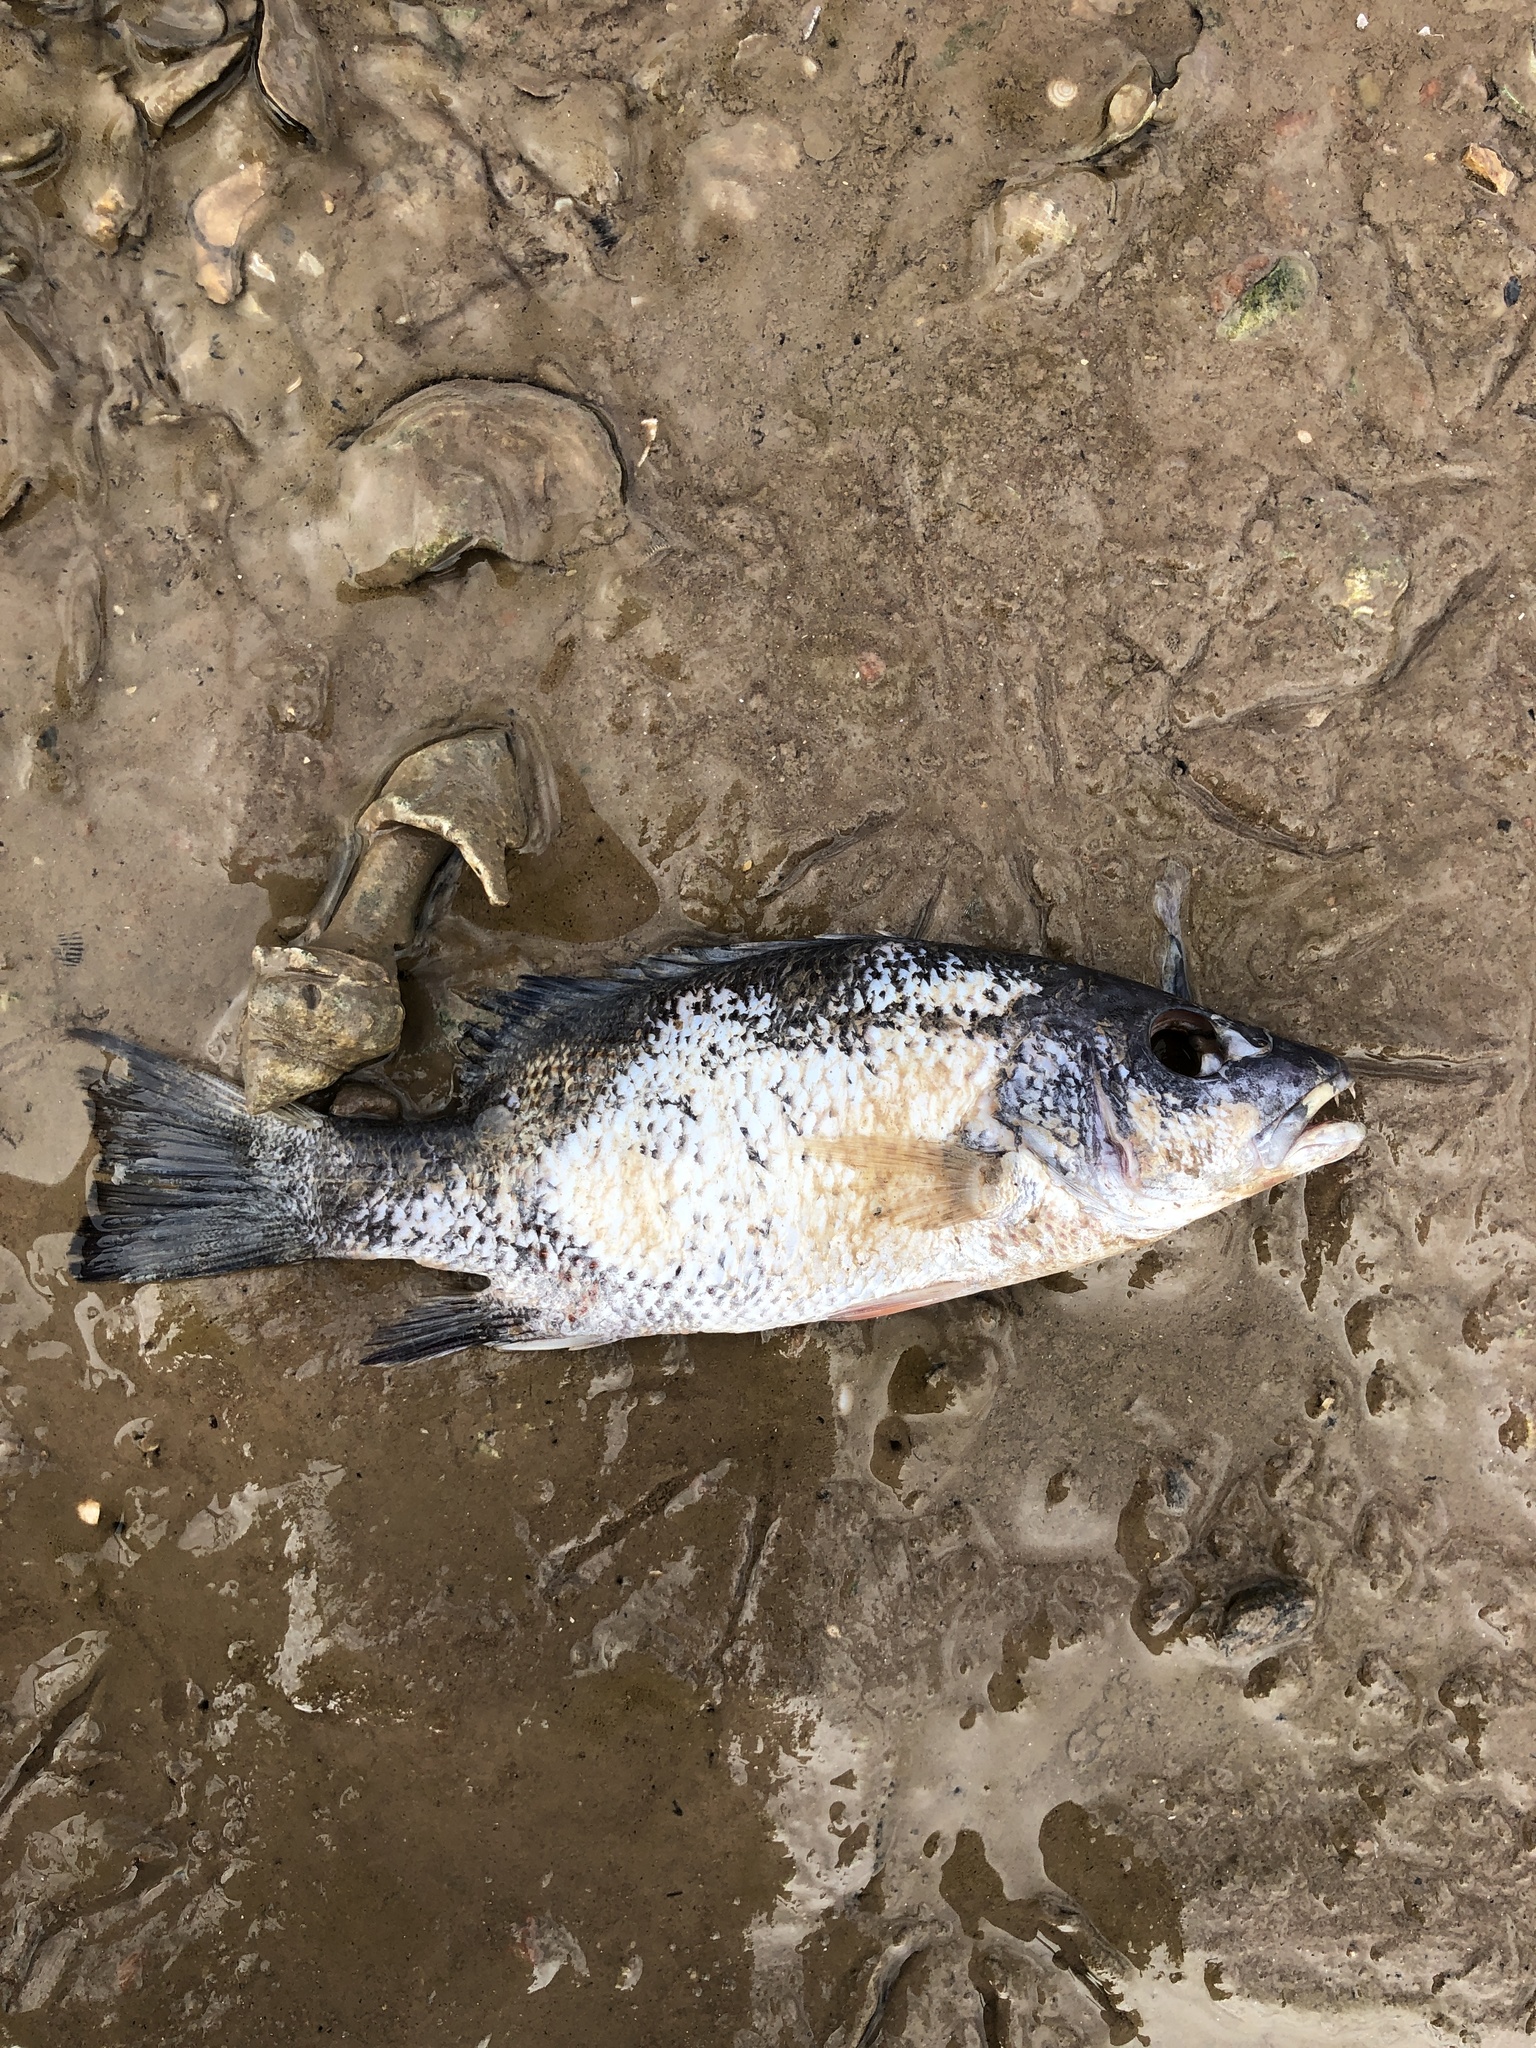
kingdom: Animalia
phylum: Chordata
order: Perciformes
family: Lutjanidae
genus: Lutjanus
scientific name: Lutjanus griseus
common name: Gray snapper
